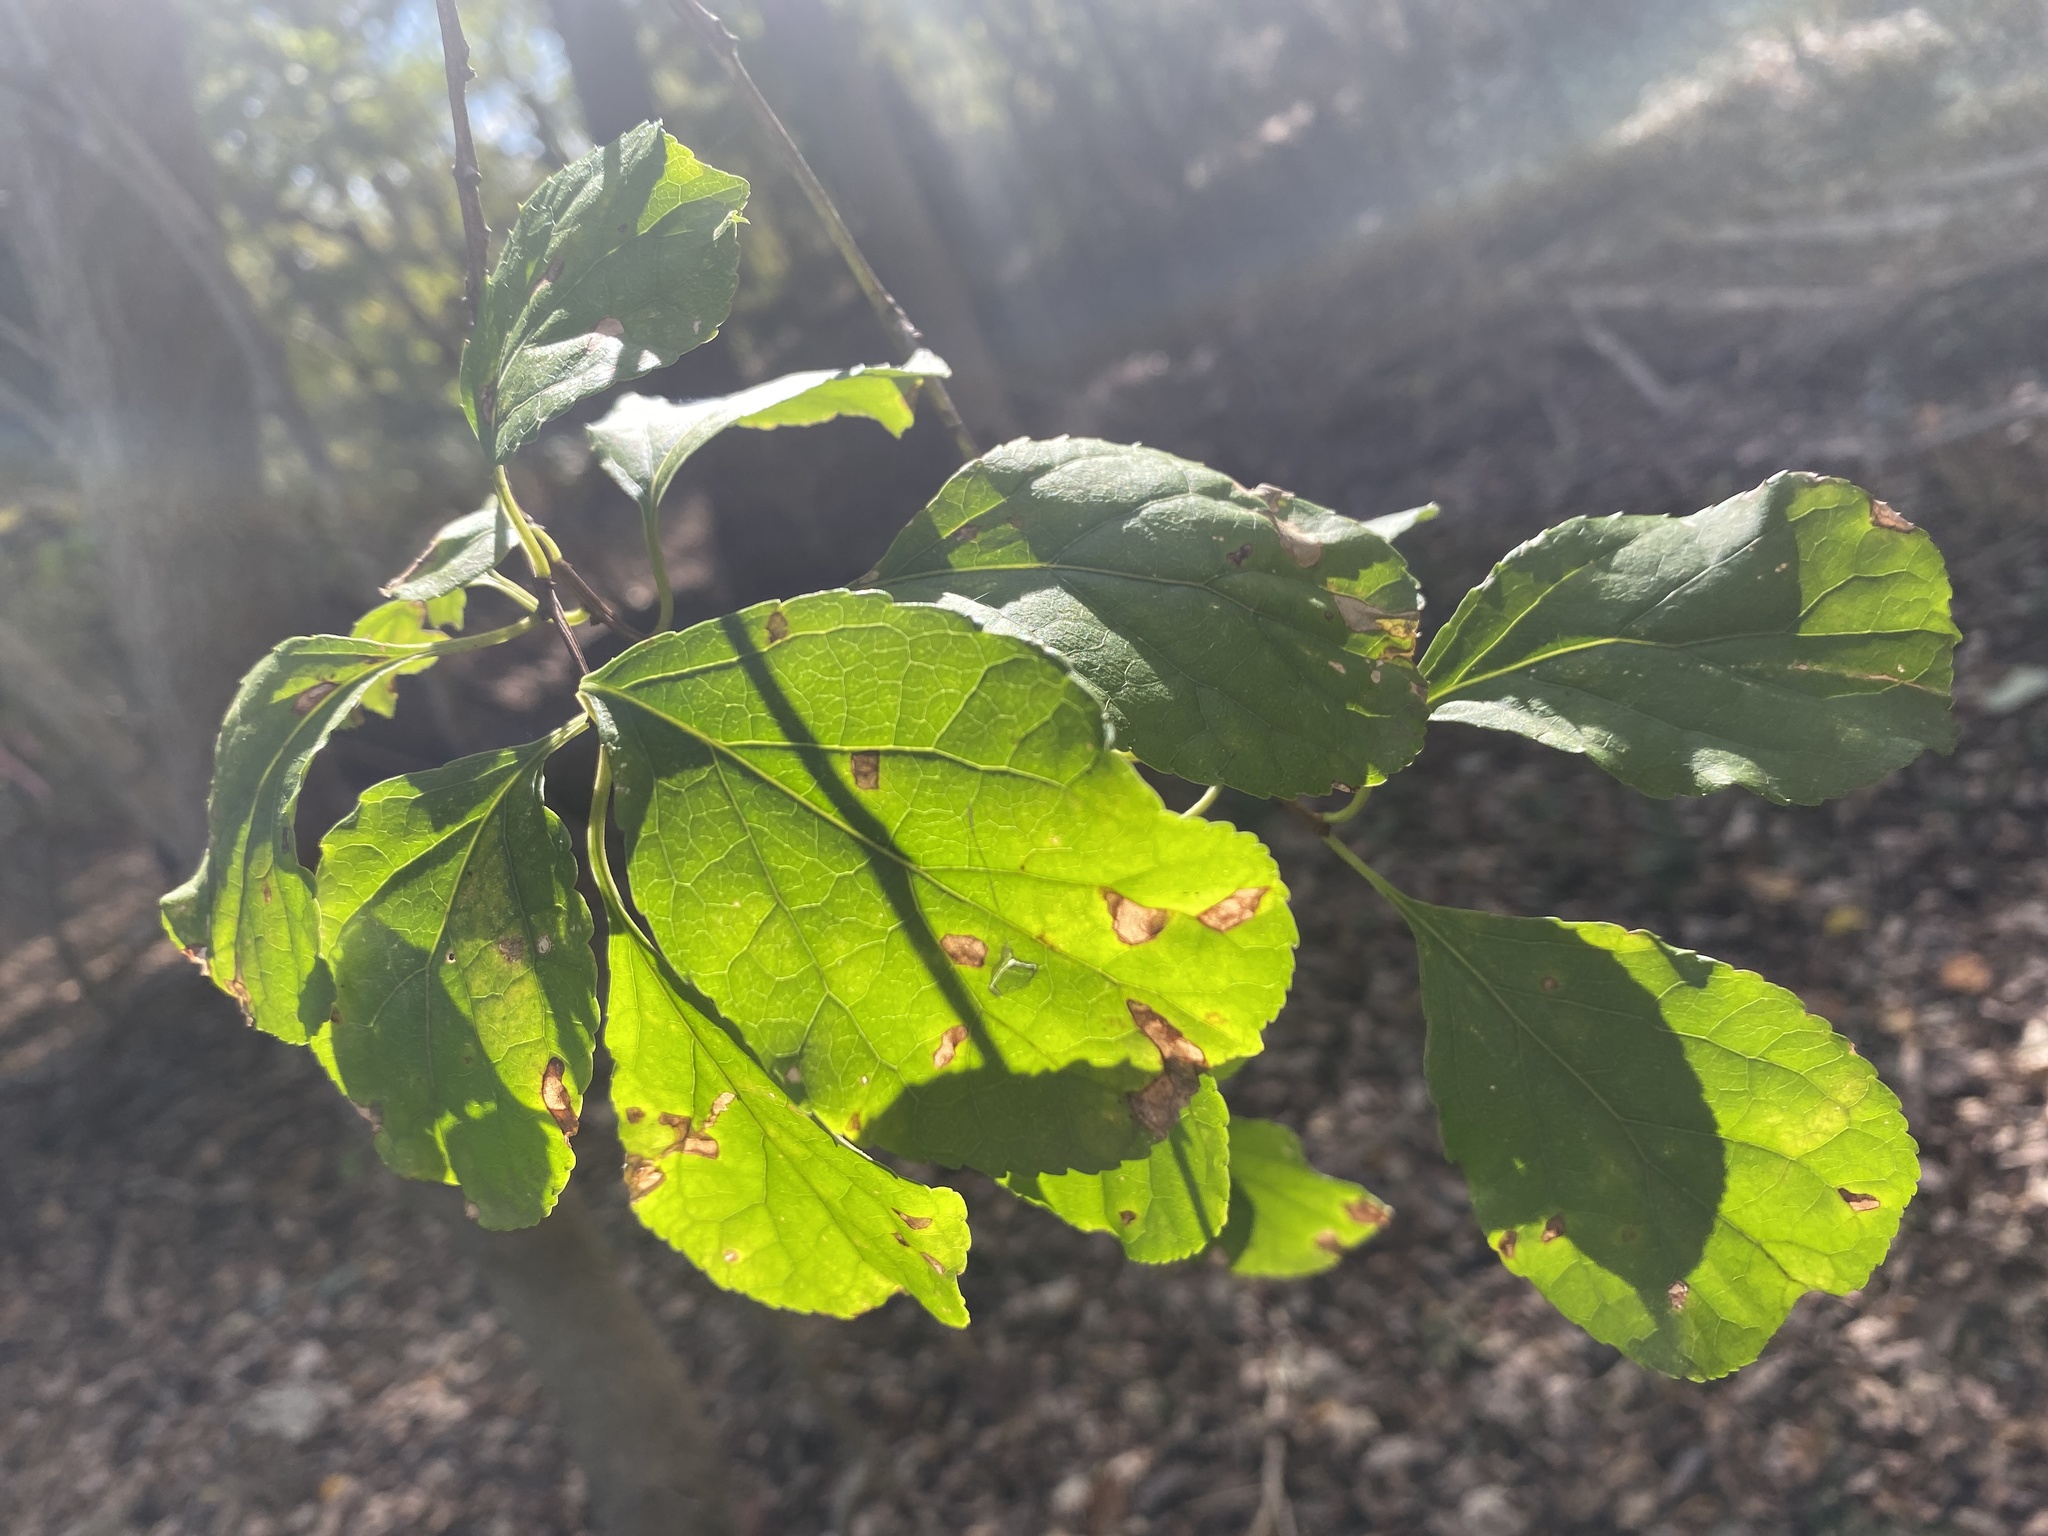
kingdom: Plantae
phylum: Tracheophyta
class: Magnoliopsida
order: Celastrales
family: Celastraceae
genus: Celastrus
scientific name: Celastrus orbiculatus
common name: Oriental bittersweet
